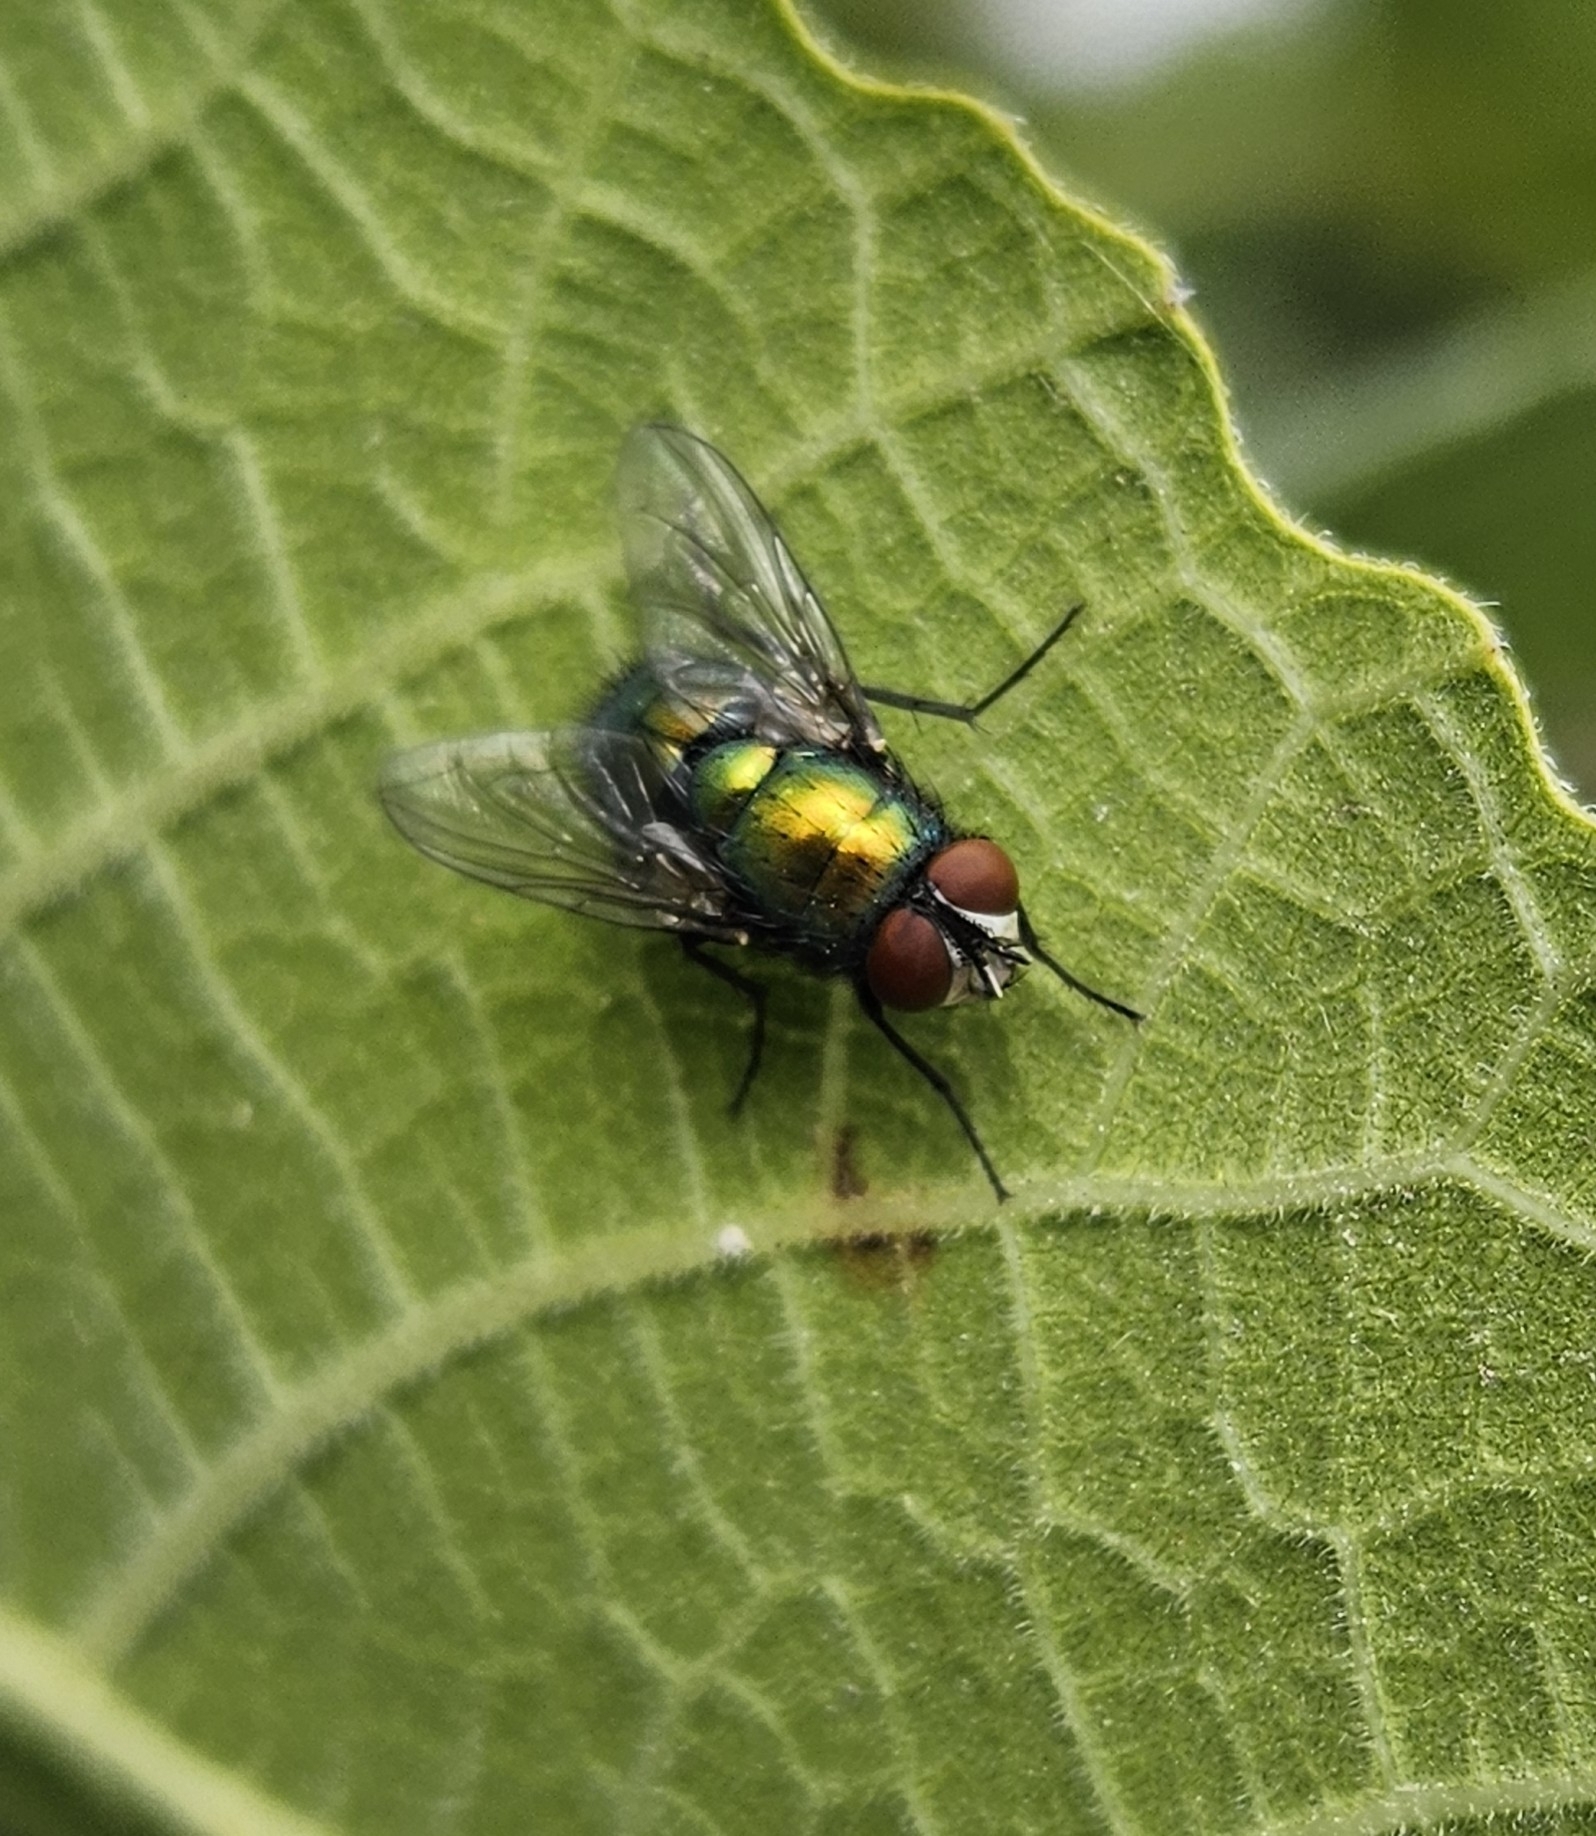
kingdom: Animalia
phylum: Arthropoda
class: Insecta
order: Diptera
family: Calliphoridae
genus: Lucilia
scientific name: Lucilia sericata
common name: Blow fly
